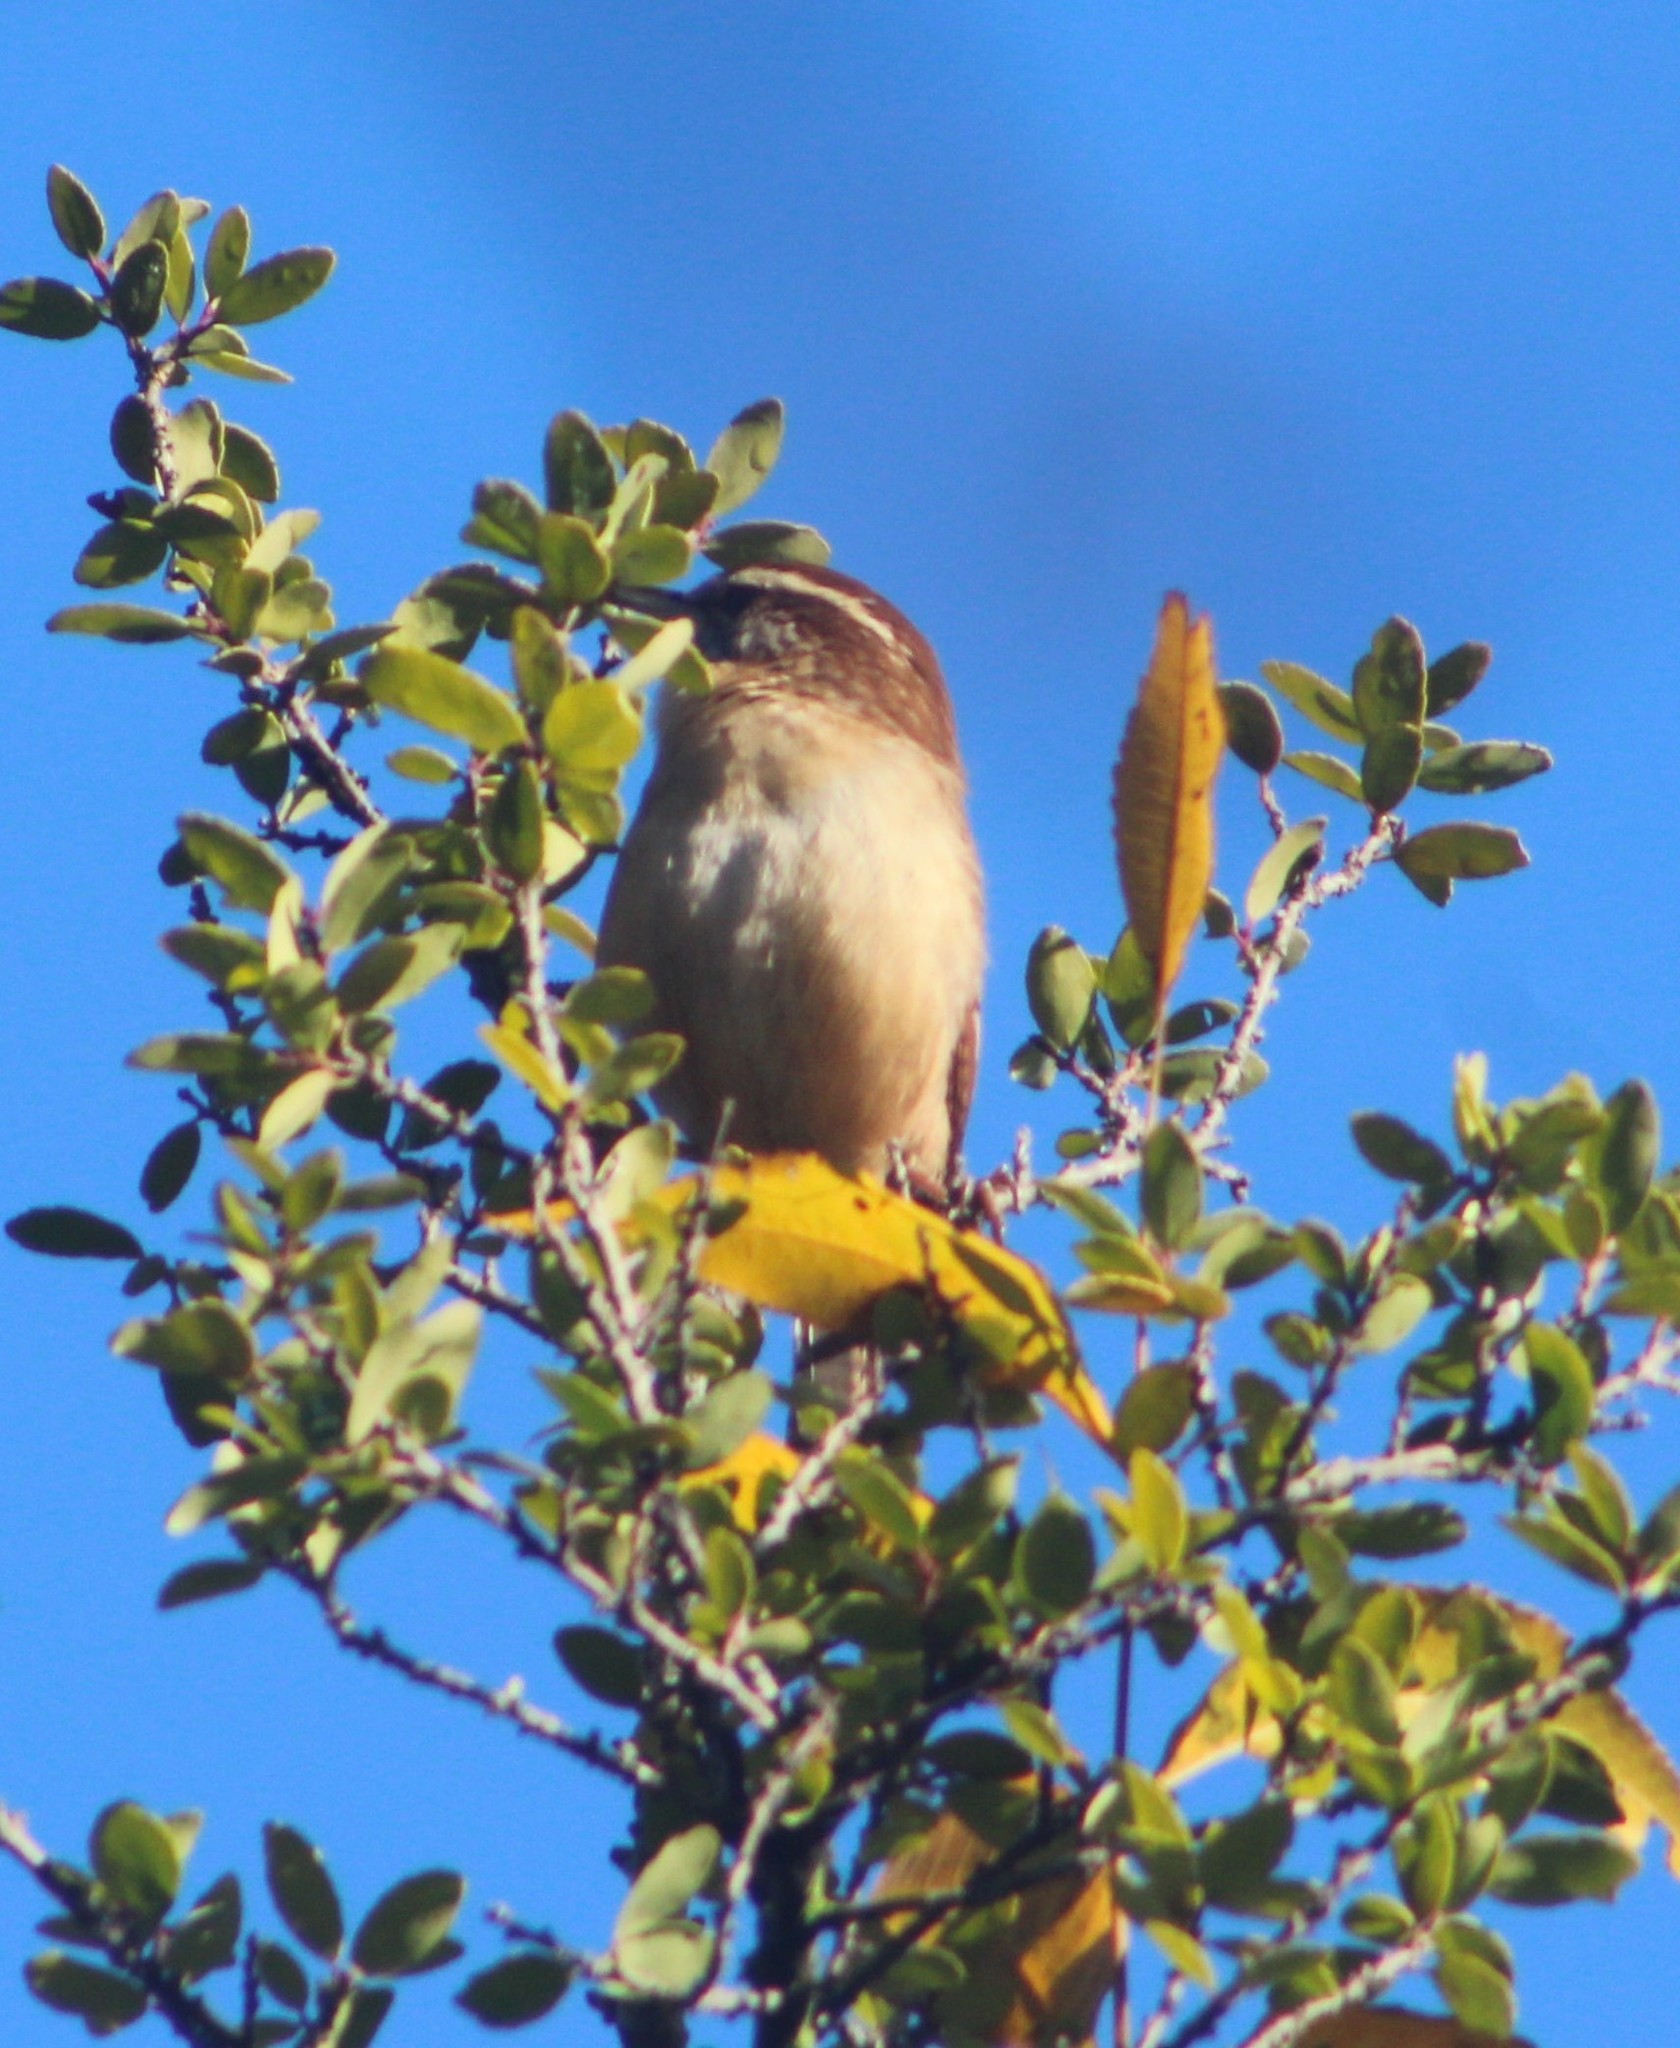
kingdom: Animalia
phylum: Chordata
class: Aves
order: Passeriformes
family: Troglodytidae
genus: Thryothorus
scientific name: Thryothorus ludovicianus
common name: Carolina wren
